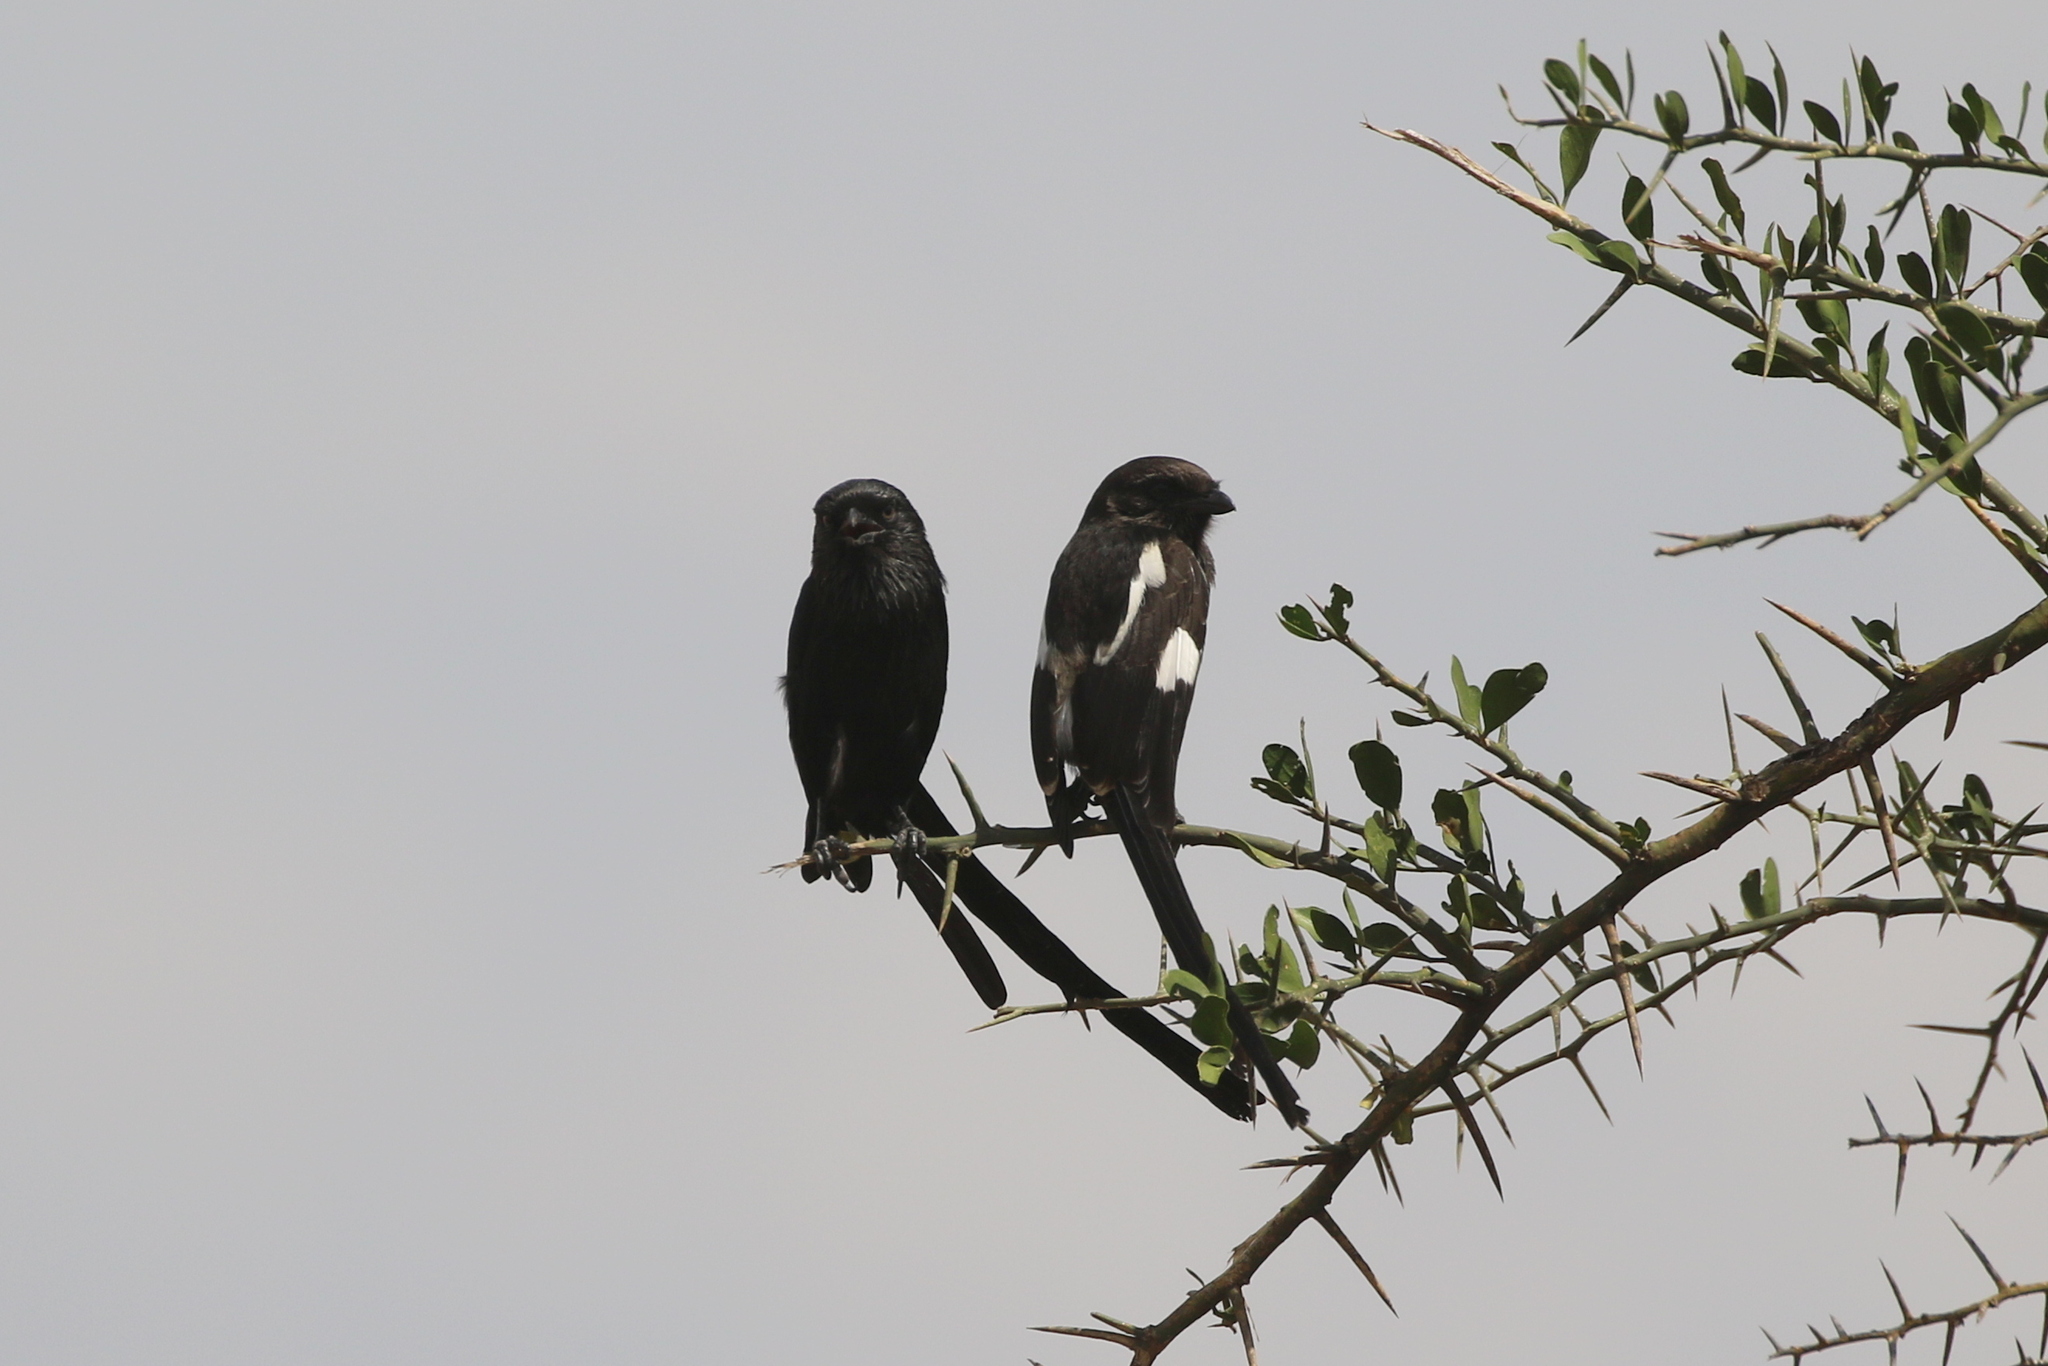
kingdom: Animalia
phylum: Chordata
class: Aves
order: Passeriformes
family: Laniidae
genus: Urolestes
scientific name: Urolestes melanoleucus
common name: Magpie shrike
